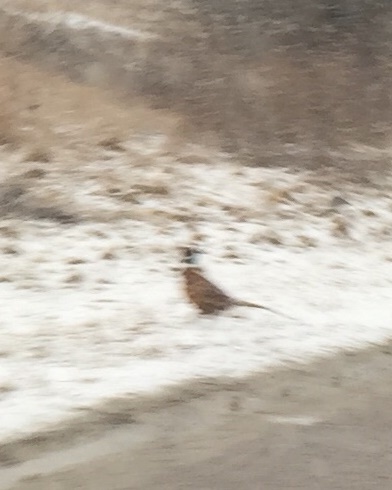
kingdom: Animalia
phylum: Chordata
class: Aves
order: Galliformes
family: Phasianidae
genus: Phasianus
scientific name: Phasianus colchicus
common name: Common pheasant
